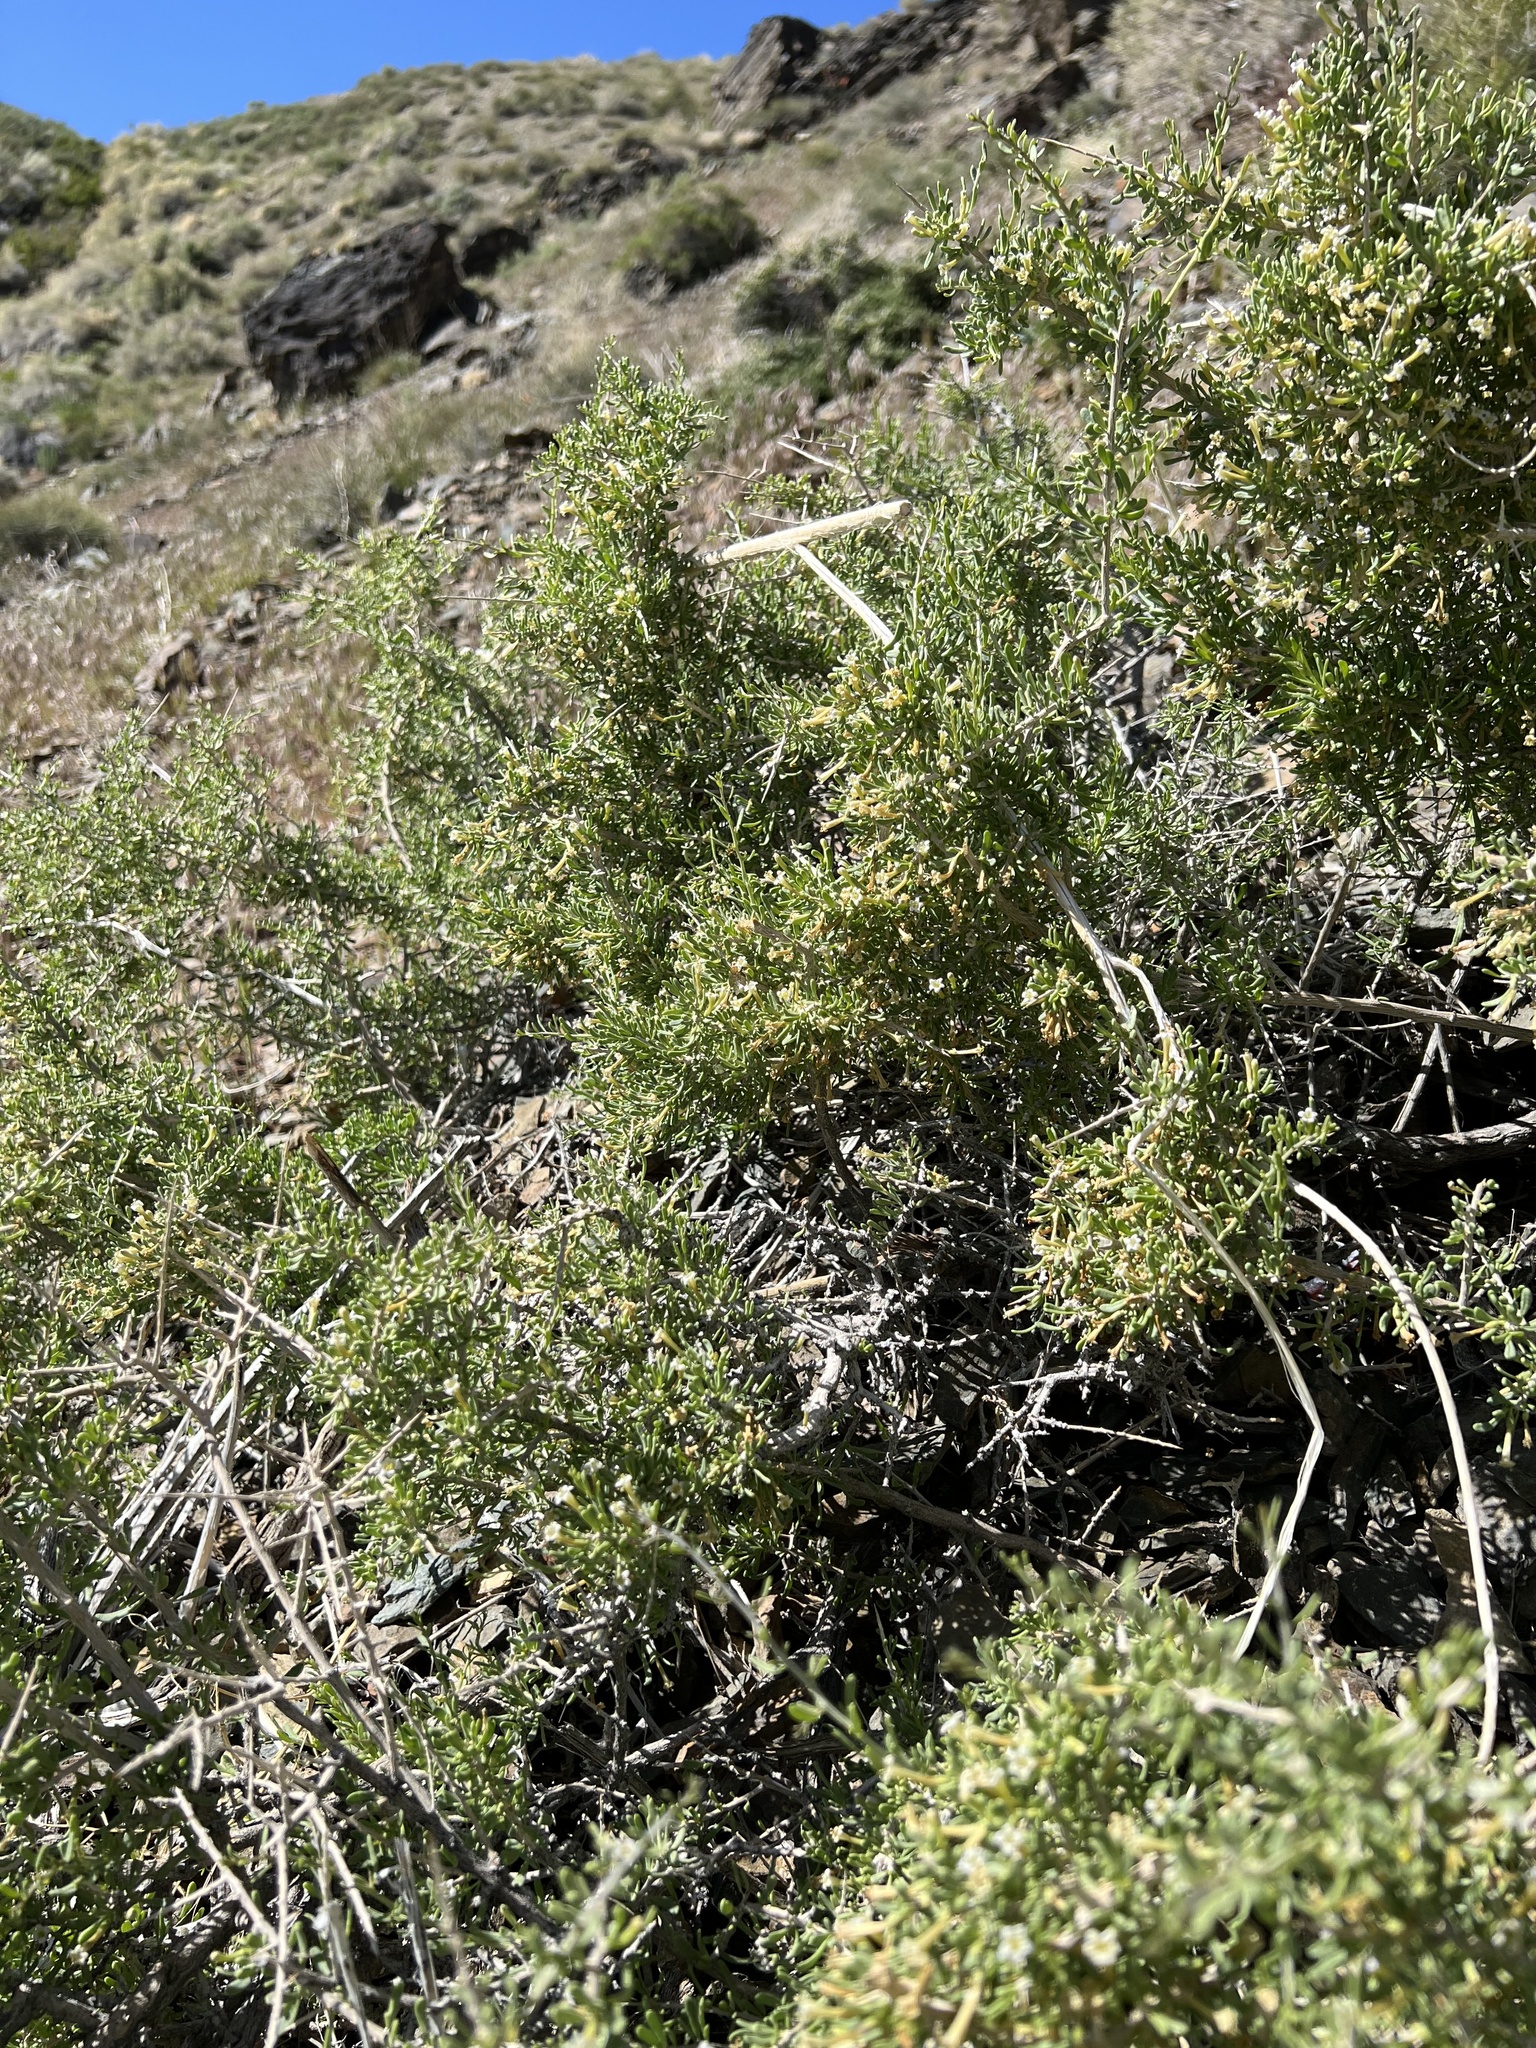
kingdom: Plantae
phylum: Tracheophyta
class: Magnoliopsida
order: Solanales
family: Solanaceae
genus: Lycium
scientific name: Lycium andersonii
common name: Water-jacket
